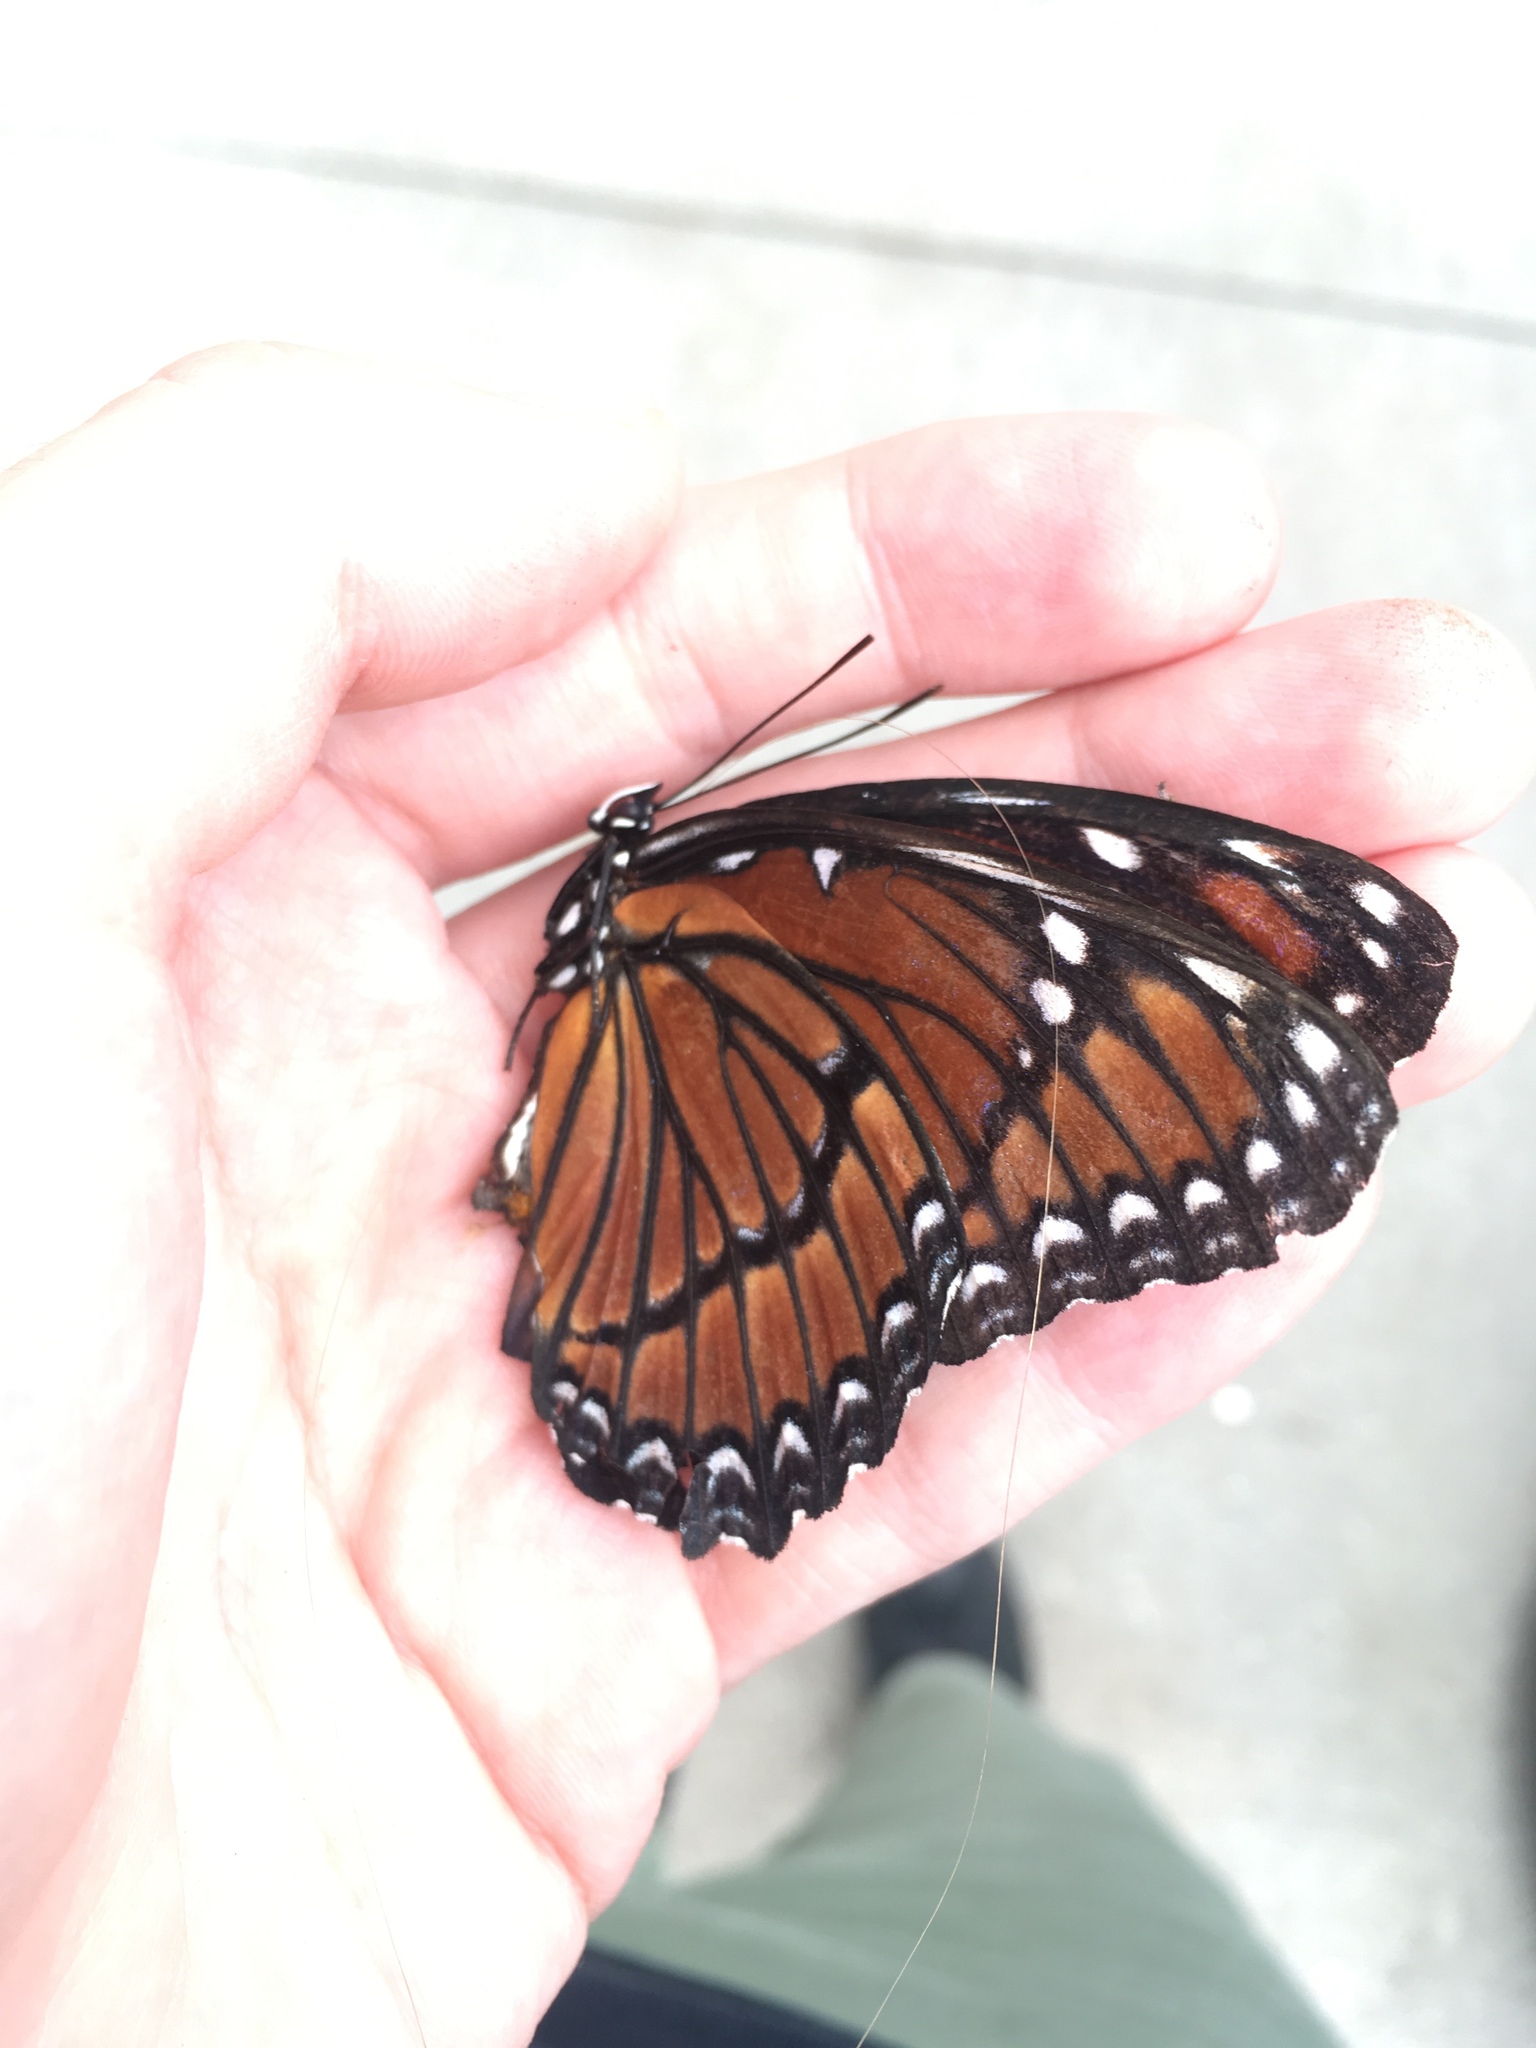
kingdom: Animalia
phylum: Arthropoda
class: Insecta
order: Lepidoptera
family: Nymphalidae
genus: Limenitis
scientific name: Limenitis archippus
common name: Viceroy
